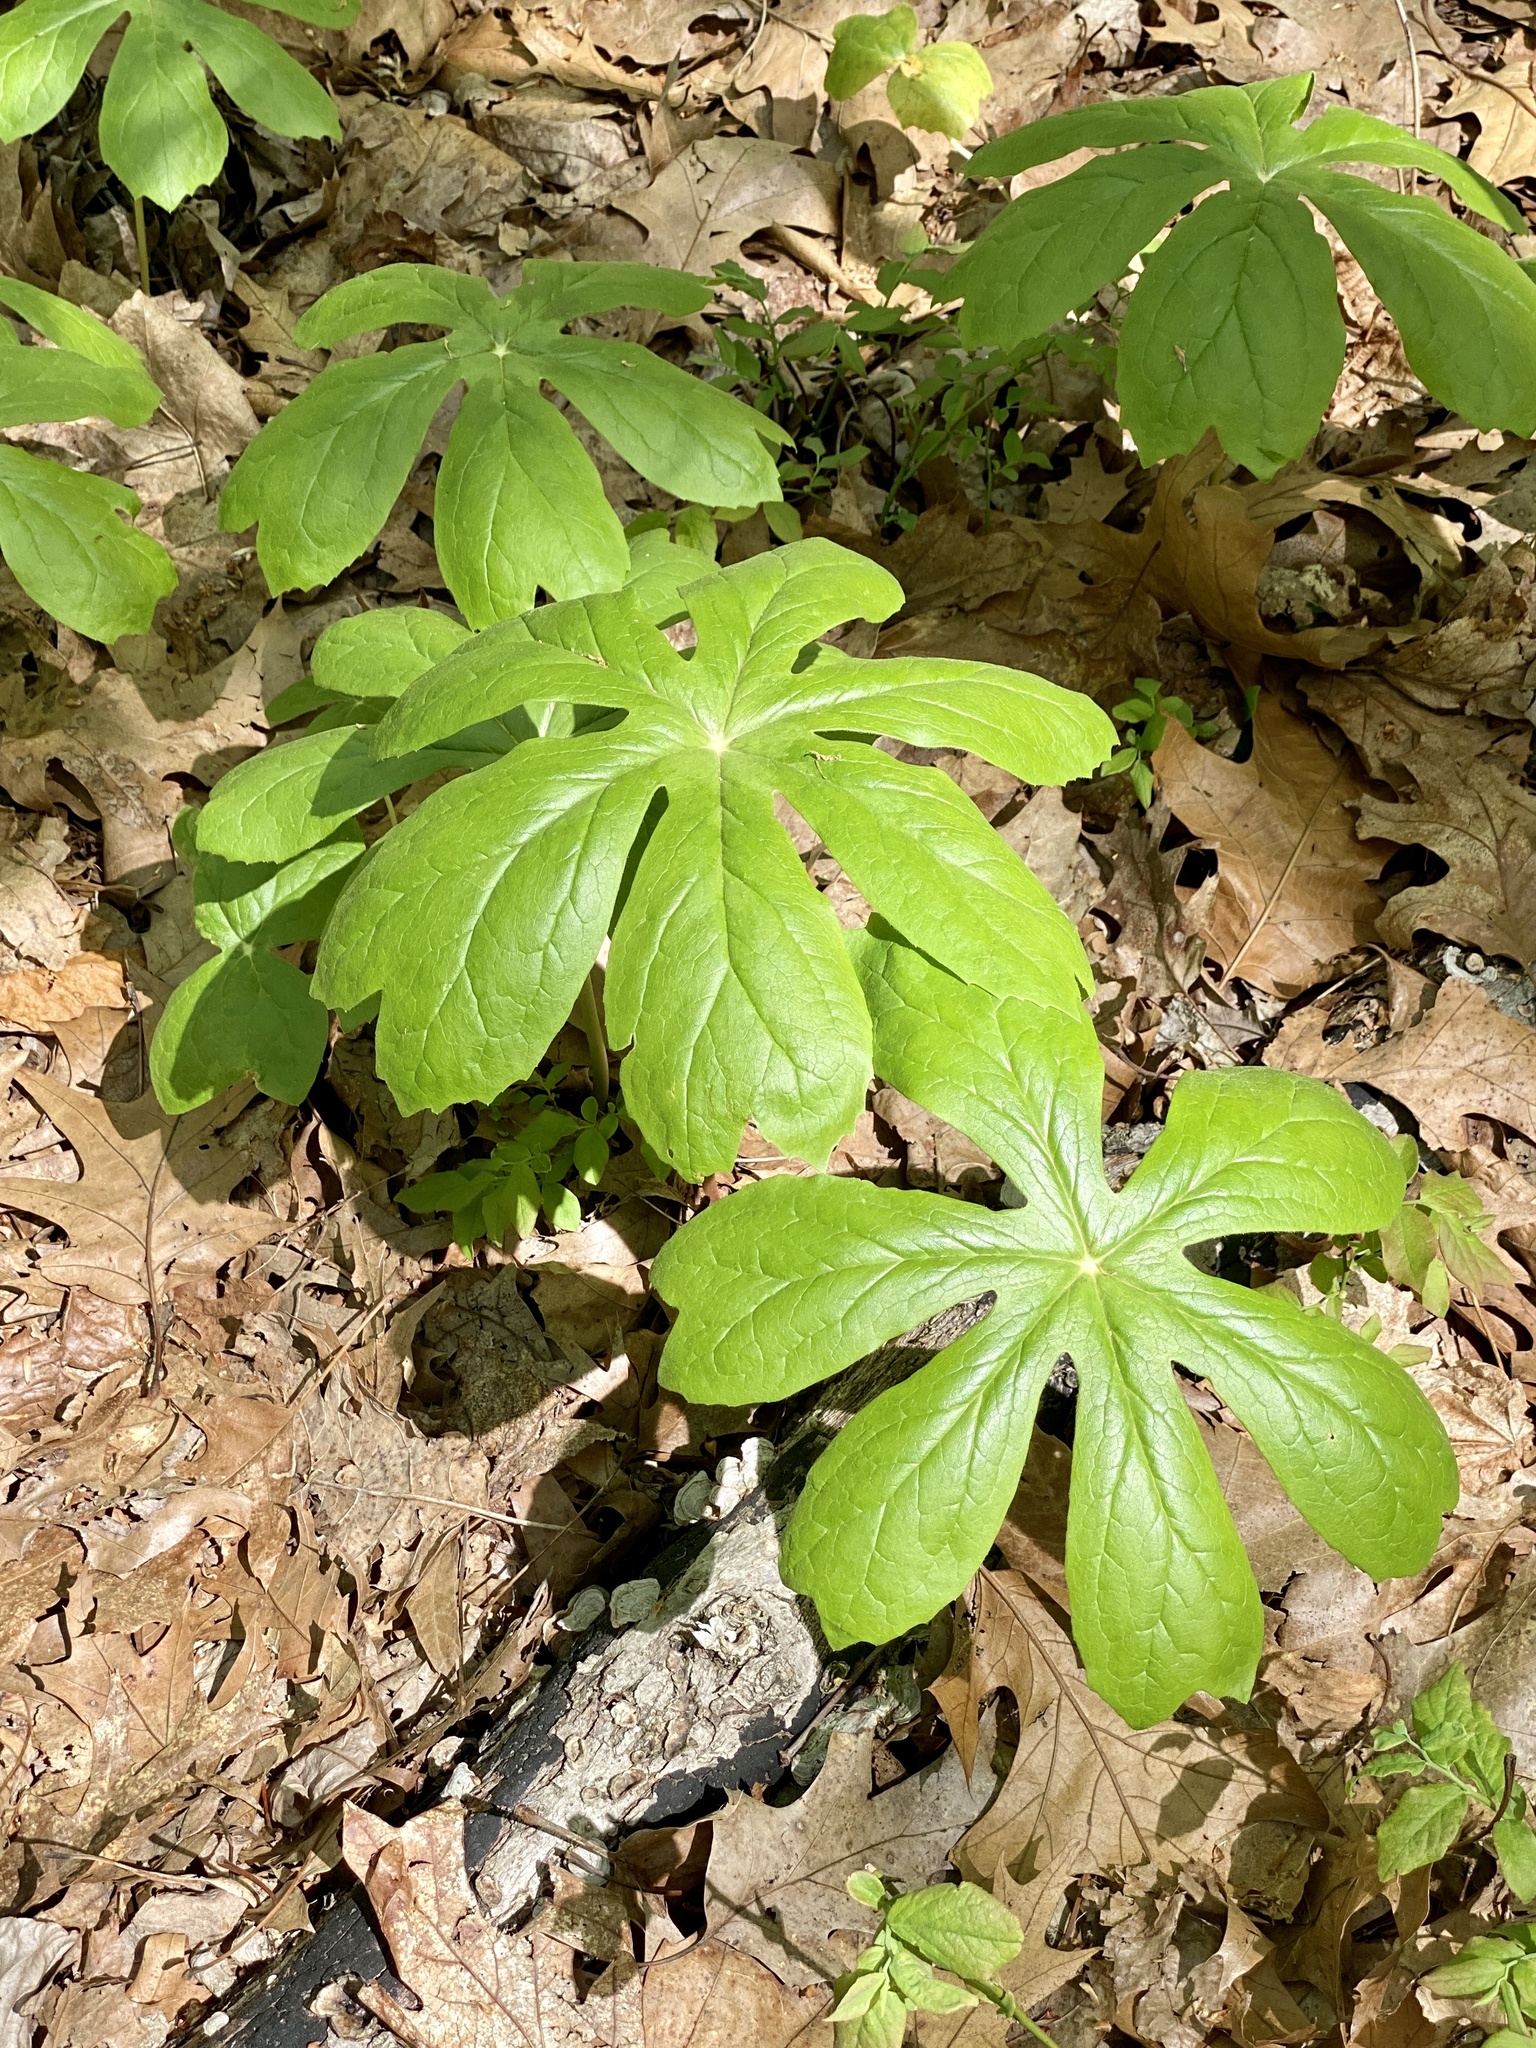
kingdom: Plantae
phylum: Tracheophyta
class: Magnoliopsida
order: Ranunculales
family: Berberidaceae
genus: Podophyllum
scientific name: Podophyllum peltatum
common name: Wild mandrake
